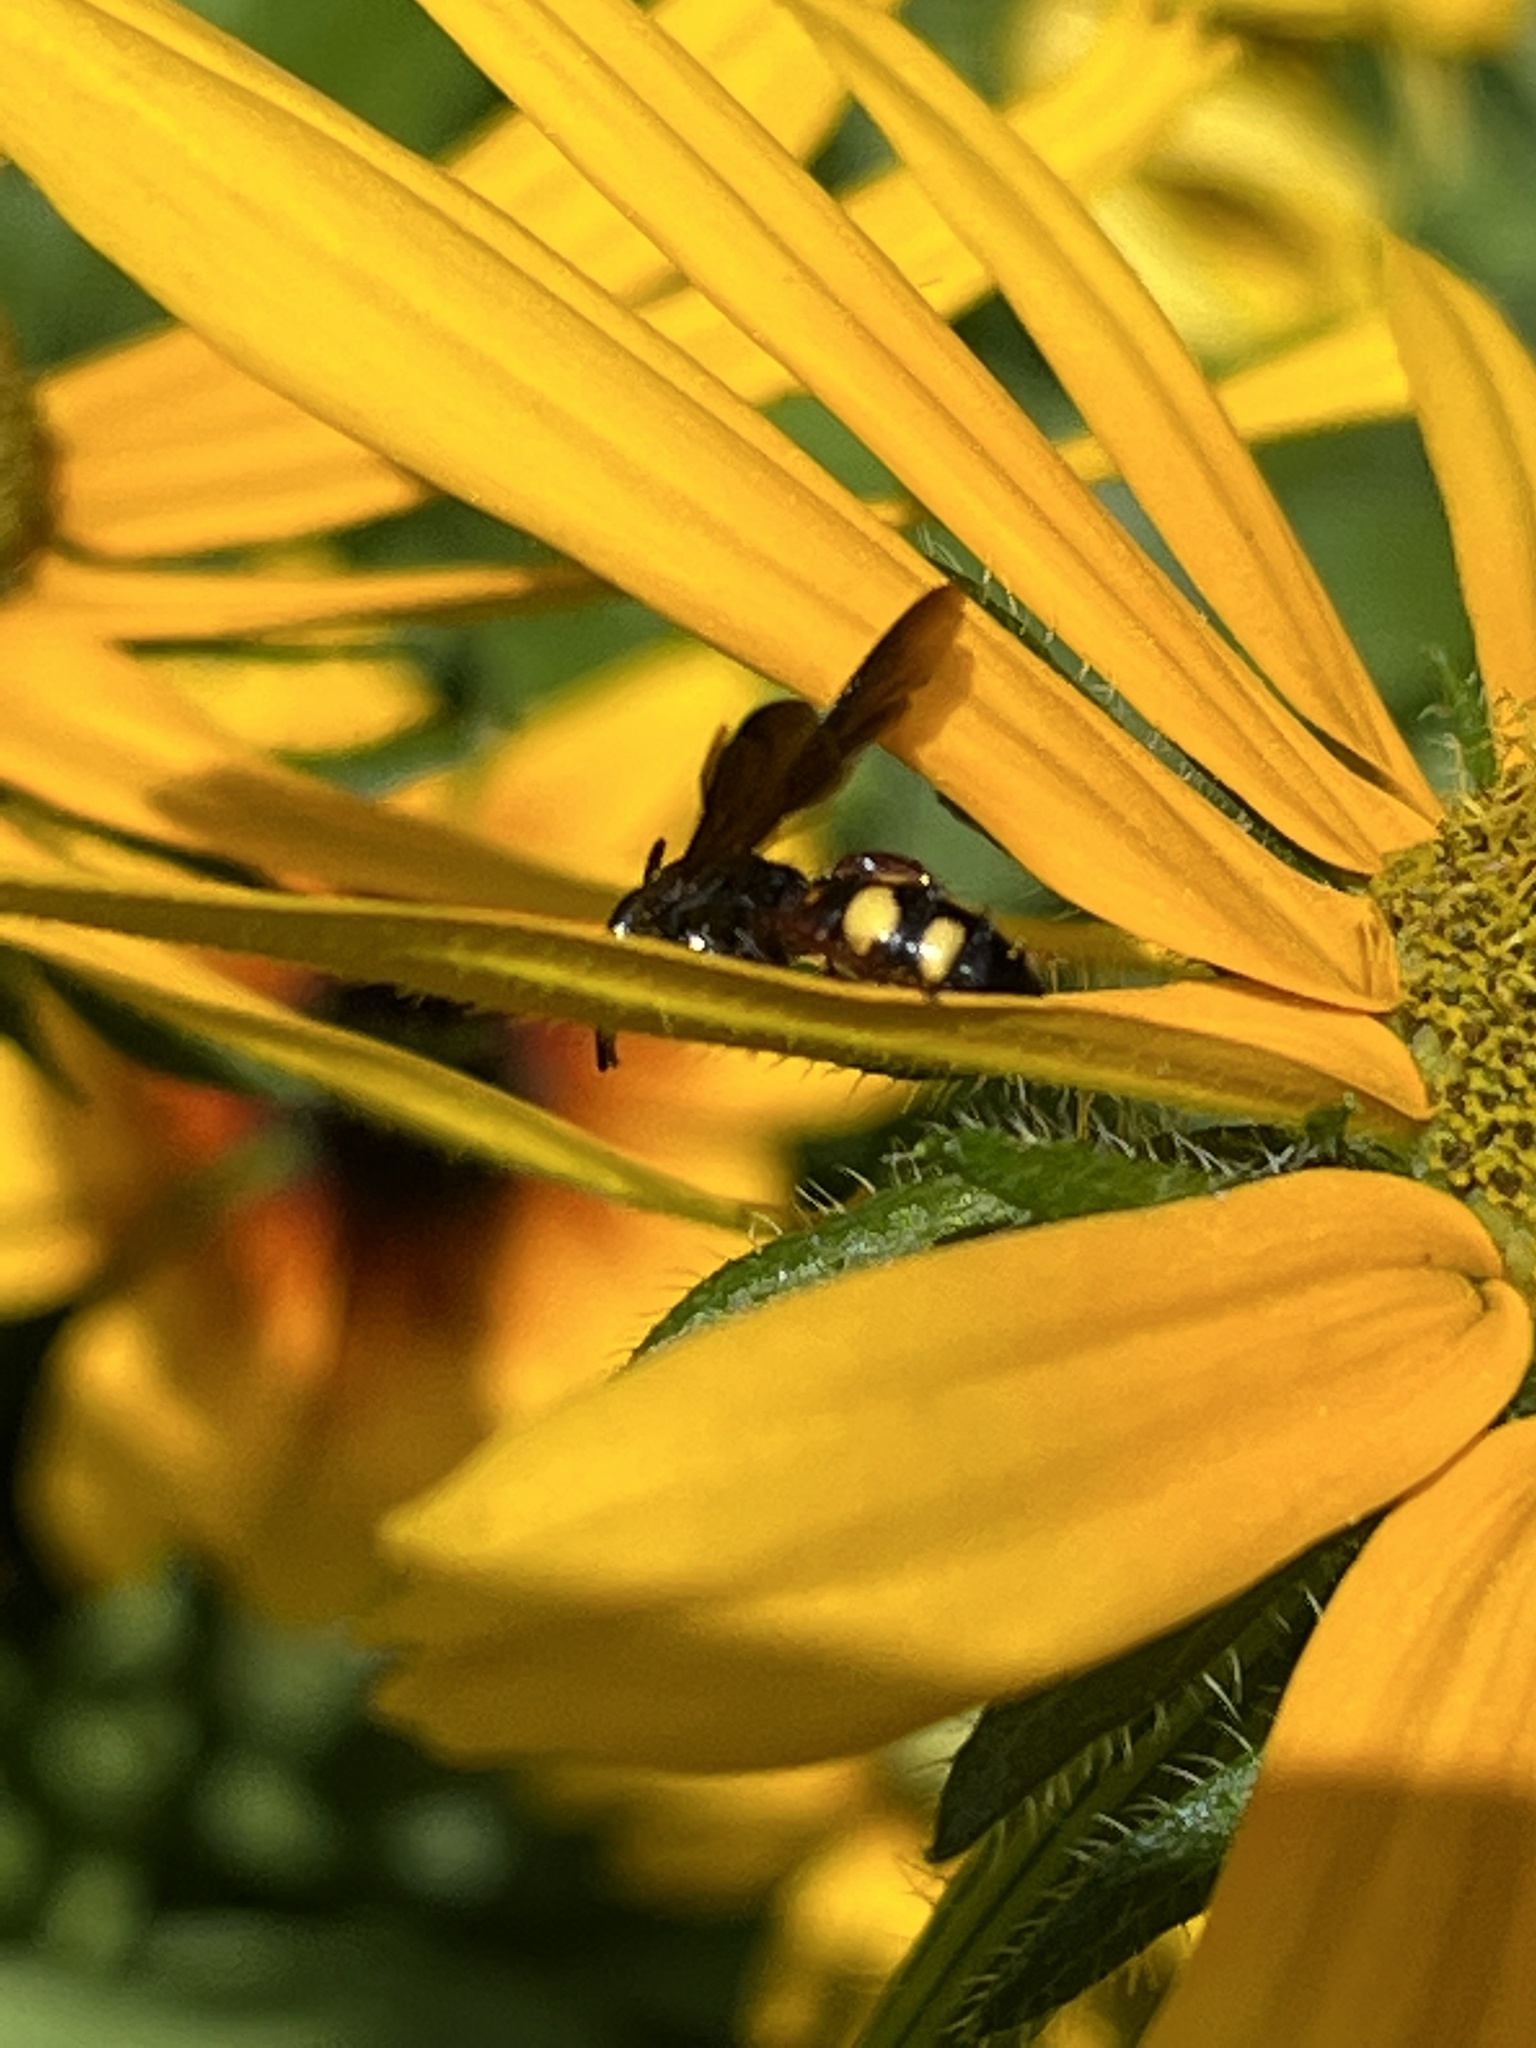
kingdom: Animalia
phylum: Arthropoda
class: Insecta
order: Hymenoptera
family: Scoliidae
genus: Scolia
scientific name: Scolia nobilitata
